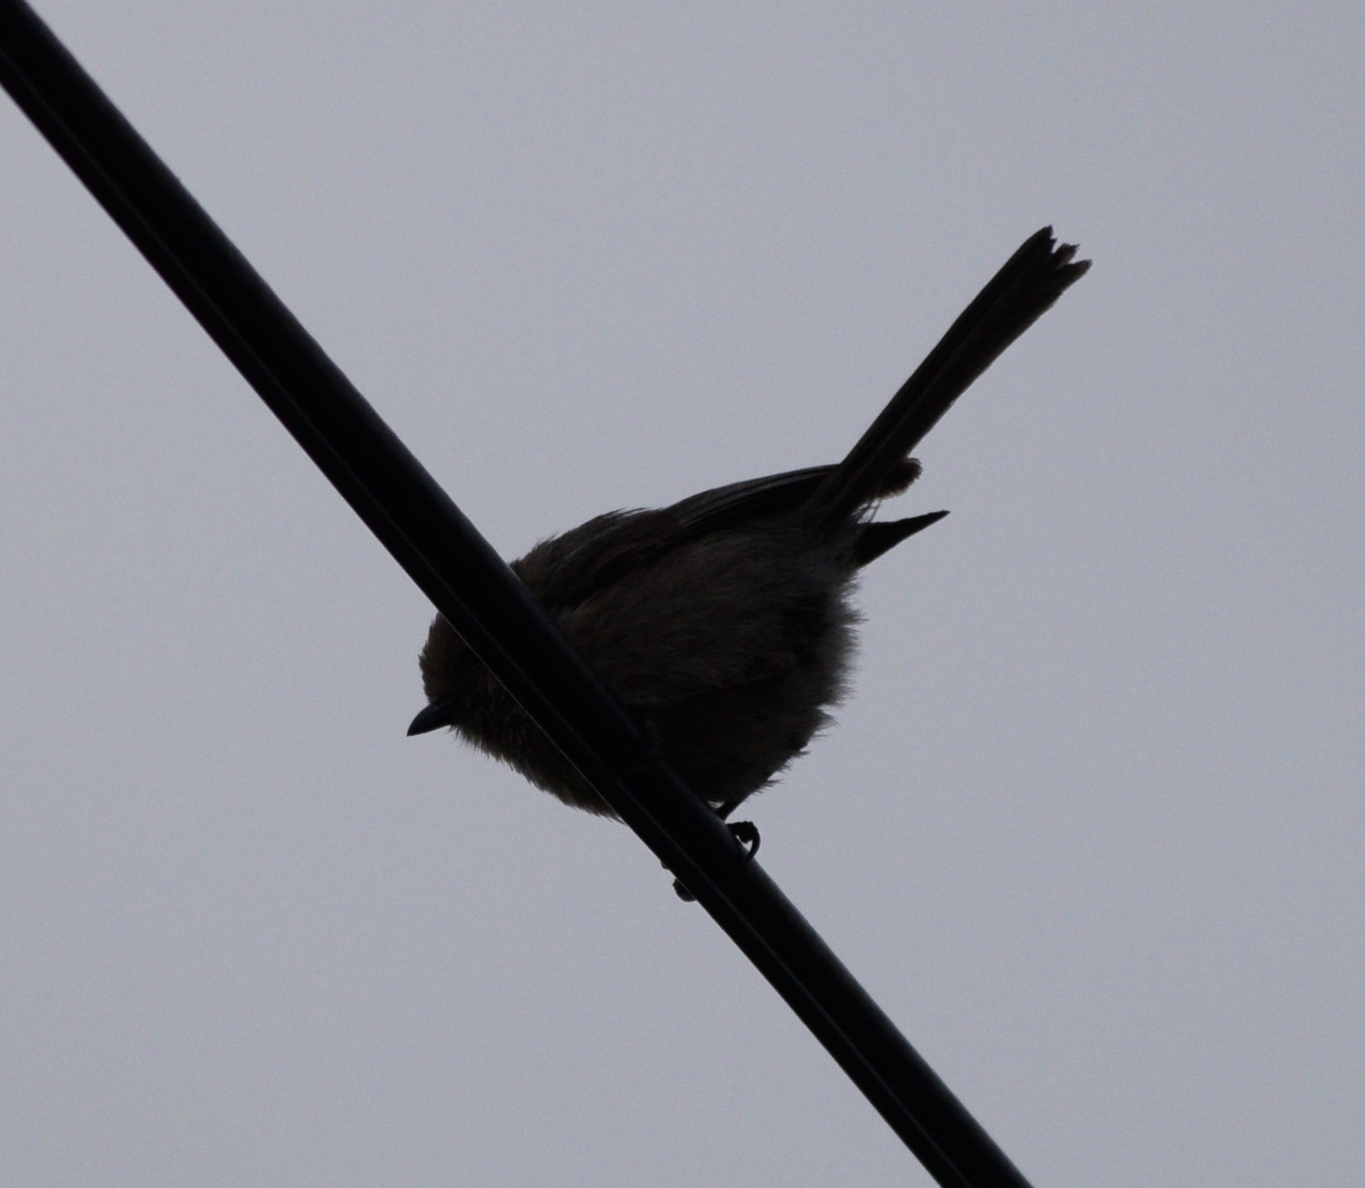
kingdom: Animalia
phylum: Chordata
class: Aves
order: Passeriformes
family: Aegithalidae
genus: Psaltriparus
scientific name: Psaltriparus minimus
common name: American bushtit
